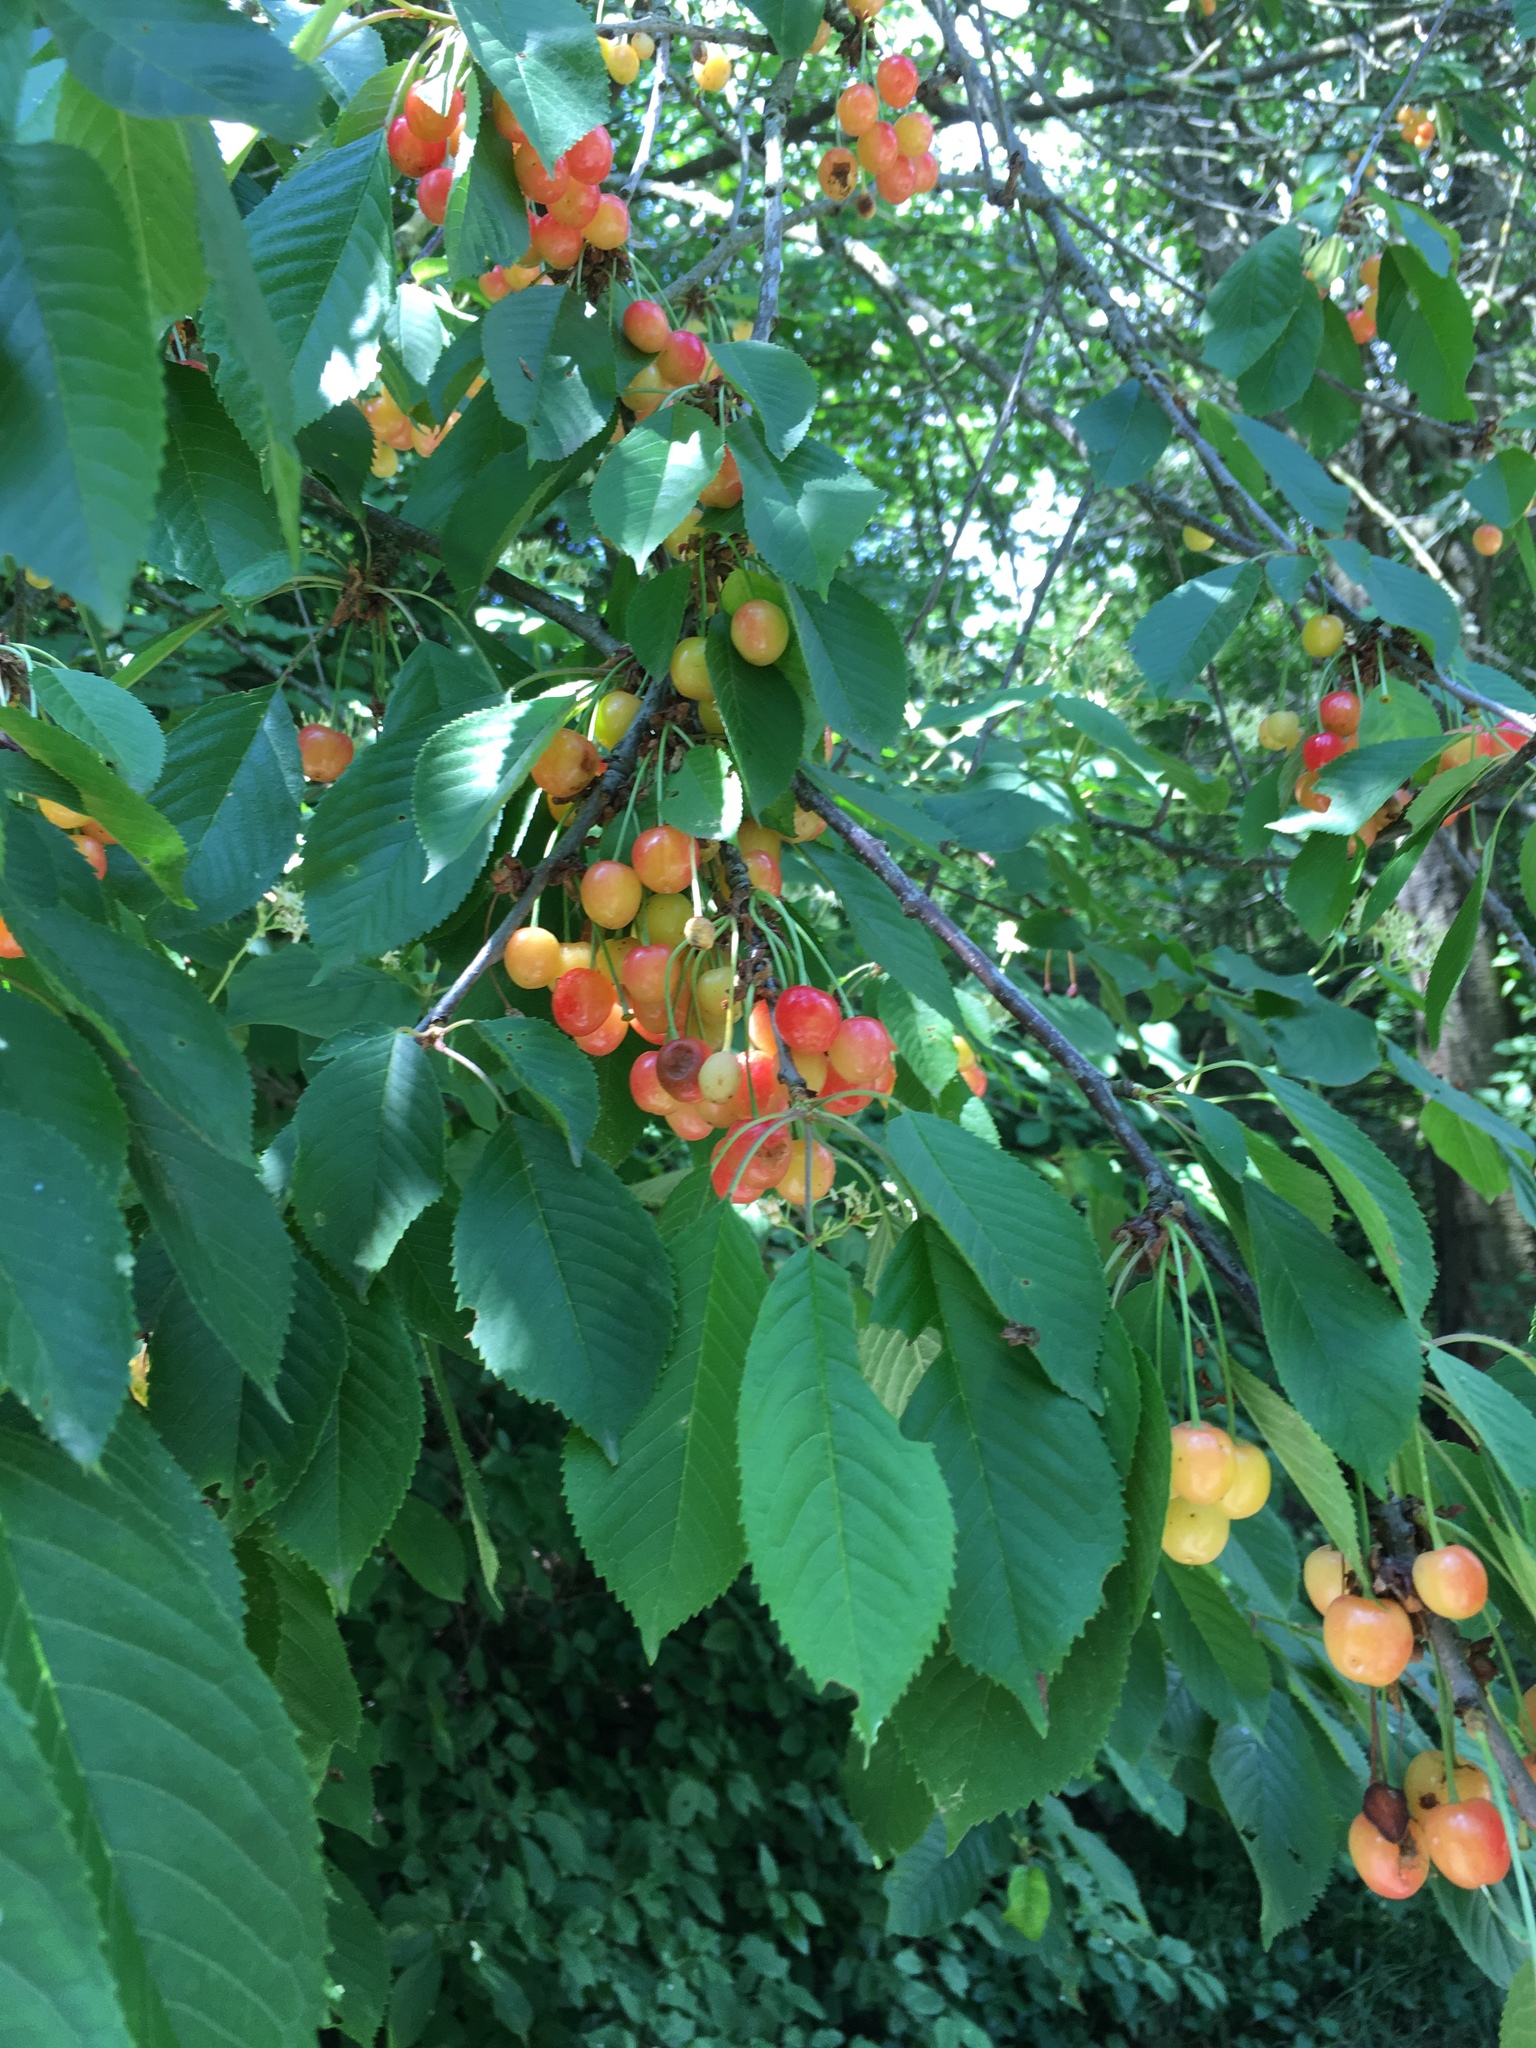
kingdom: Plantae
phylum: Tracheophyta
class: Magnoliopsida
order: Rosales
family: Rosaceae
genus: Prunus
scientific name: Prunus avium
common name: Sweet cherry
